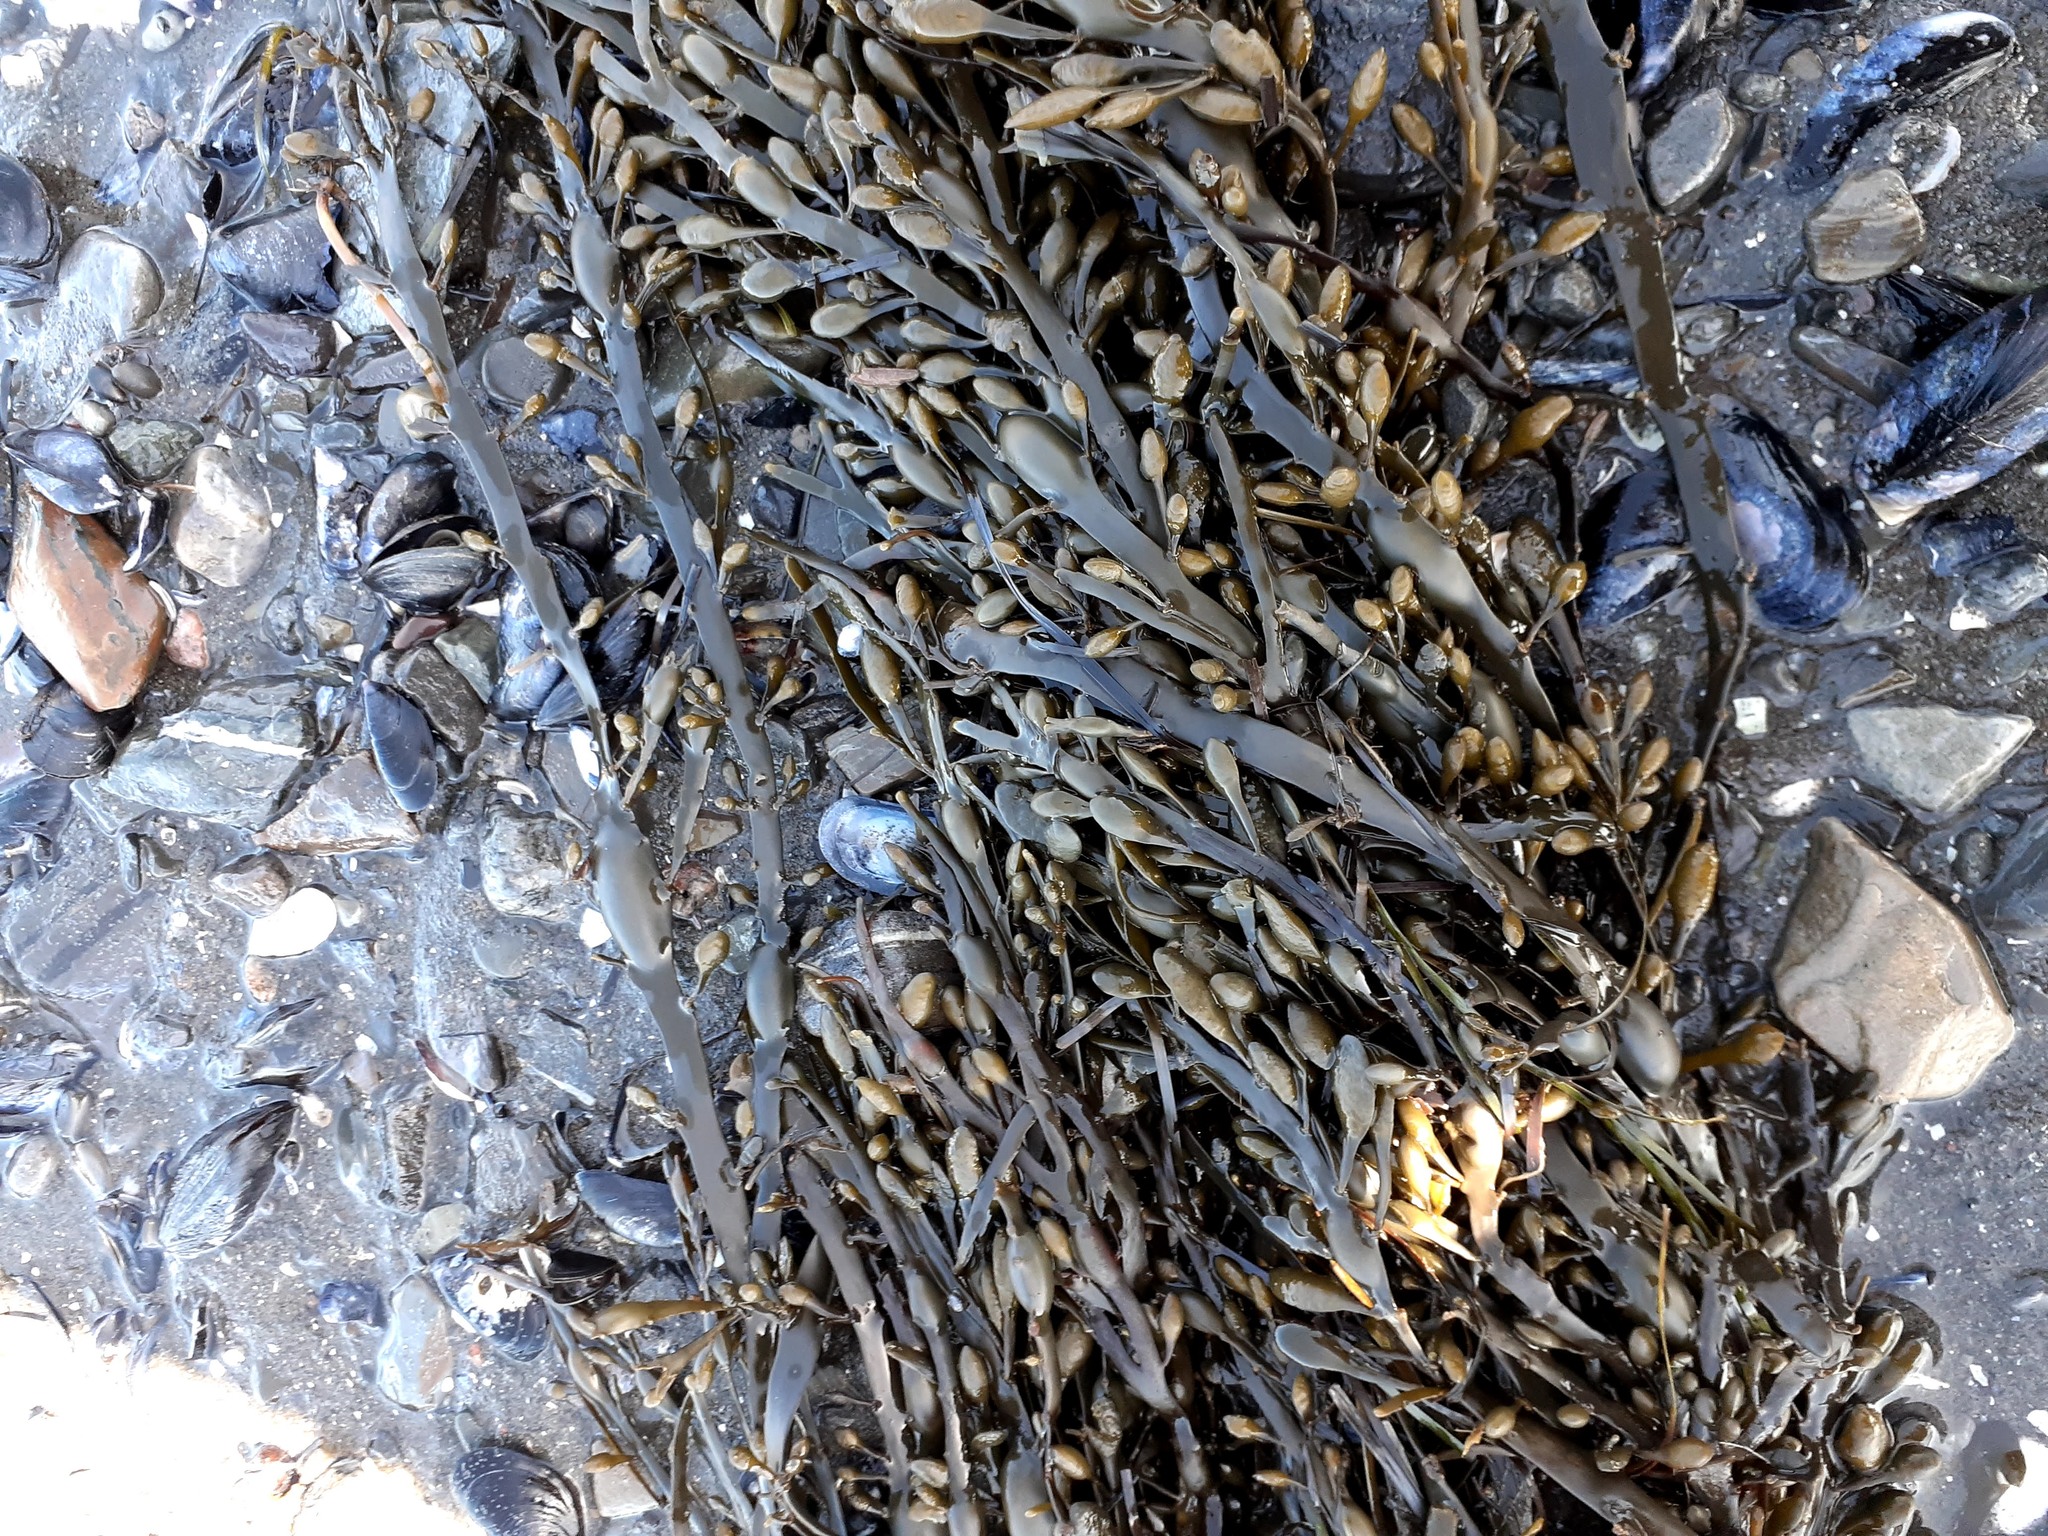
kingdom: Chromista
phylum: Ochrophyta
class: Phaeophyceae
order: Fucales
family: Fucaceae
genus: Ascophyllum
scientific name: Ascophyllum nodosum
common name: Knotted wrack
